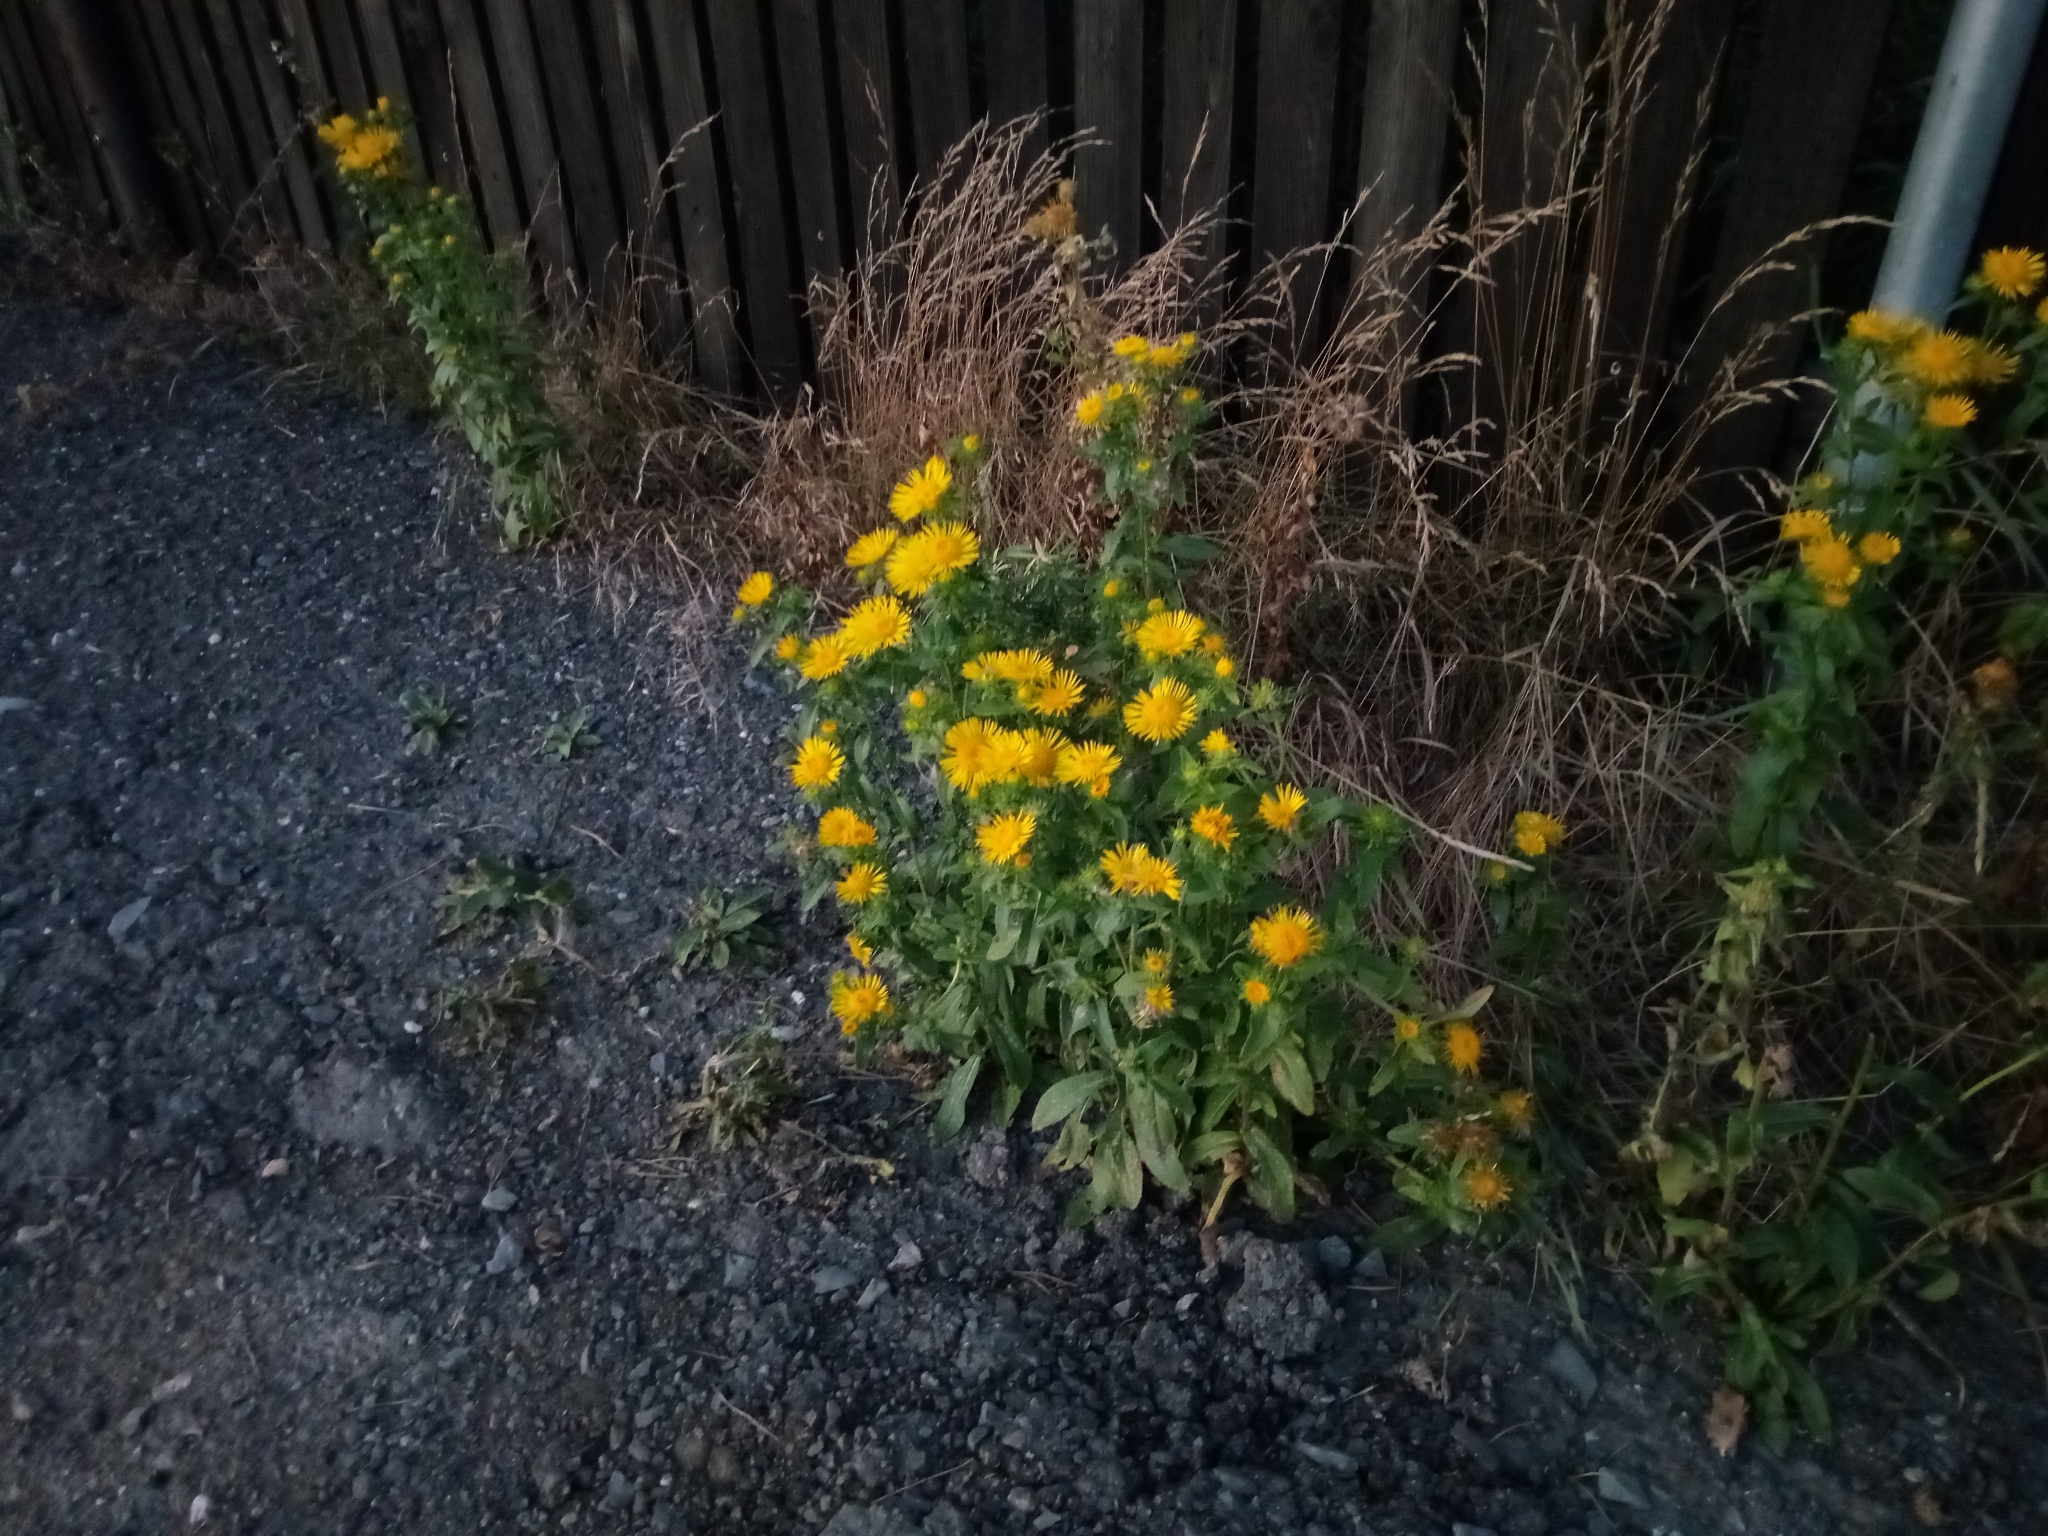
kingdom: Plantae
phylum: Tracheophyta
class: Magnoliopsida
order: Asterales
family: Asteraceae
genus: Pentanema
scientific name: Pentanema britannicum
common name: British elecampane
